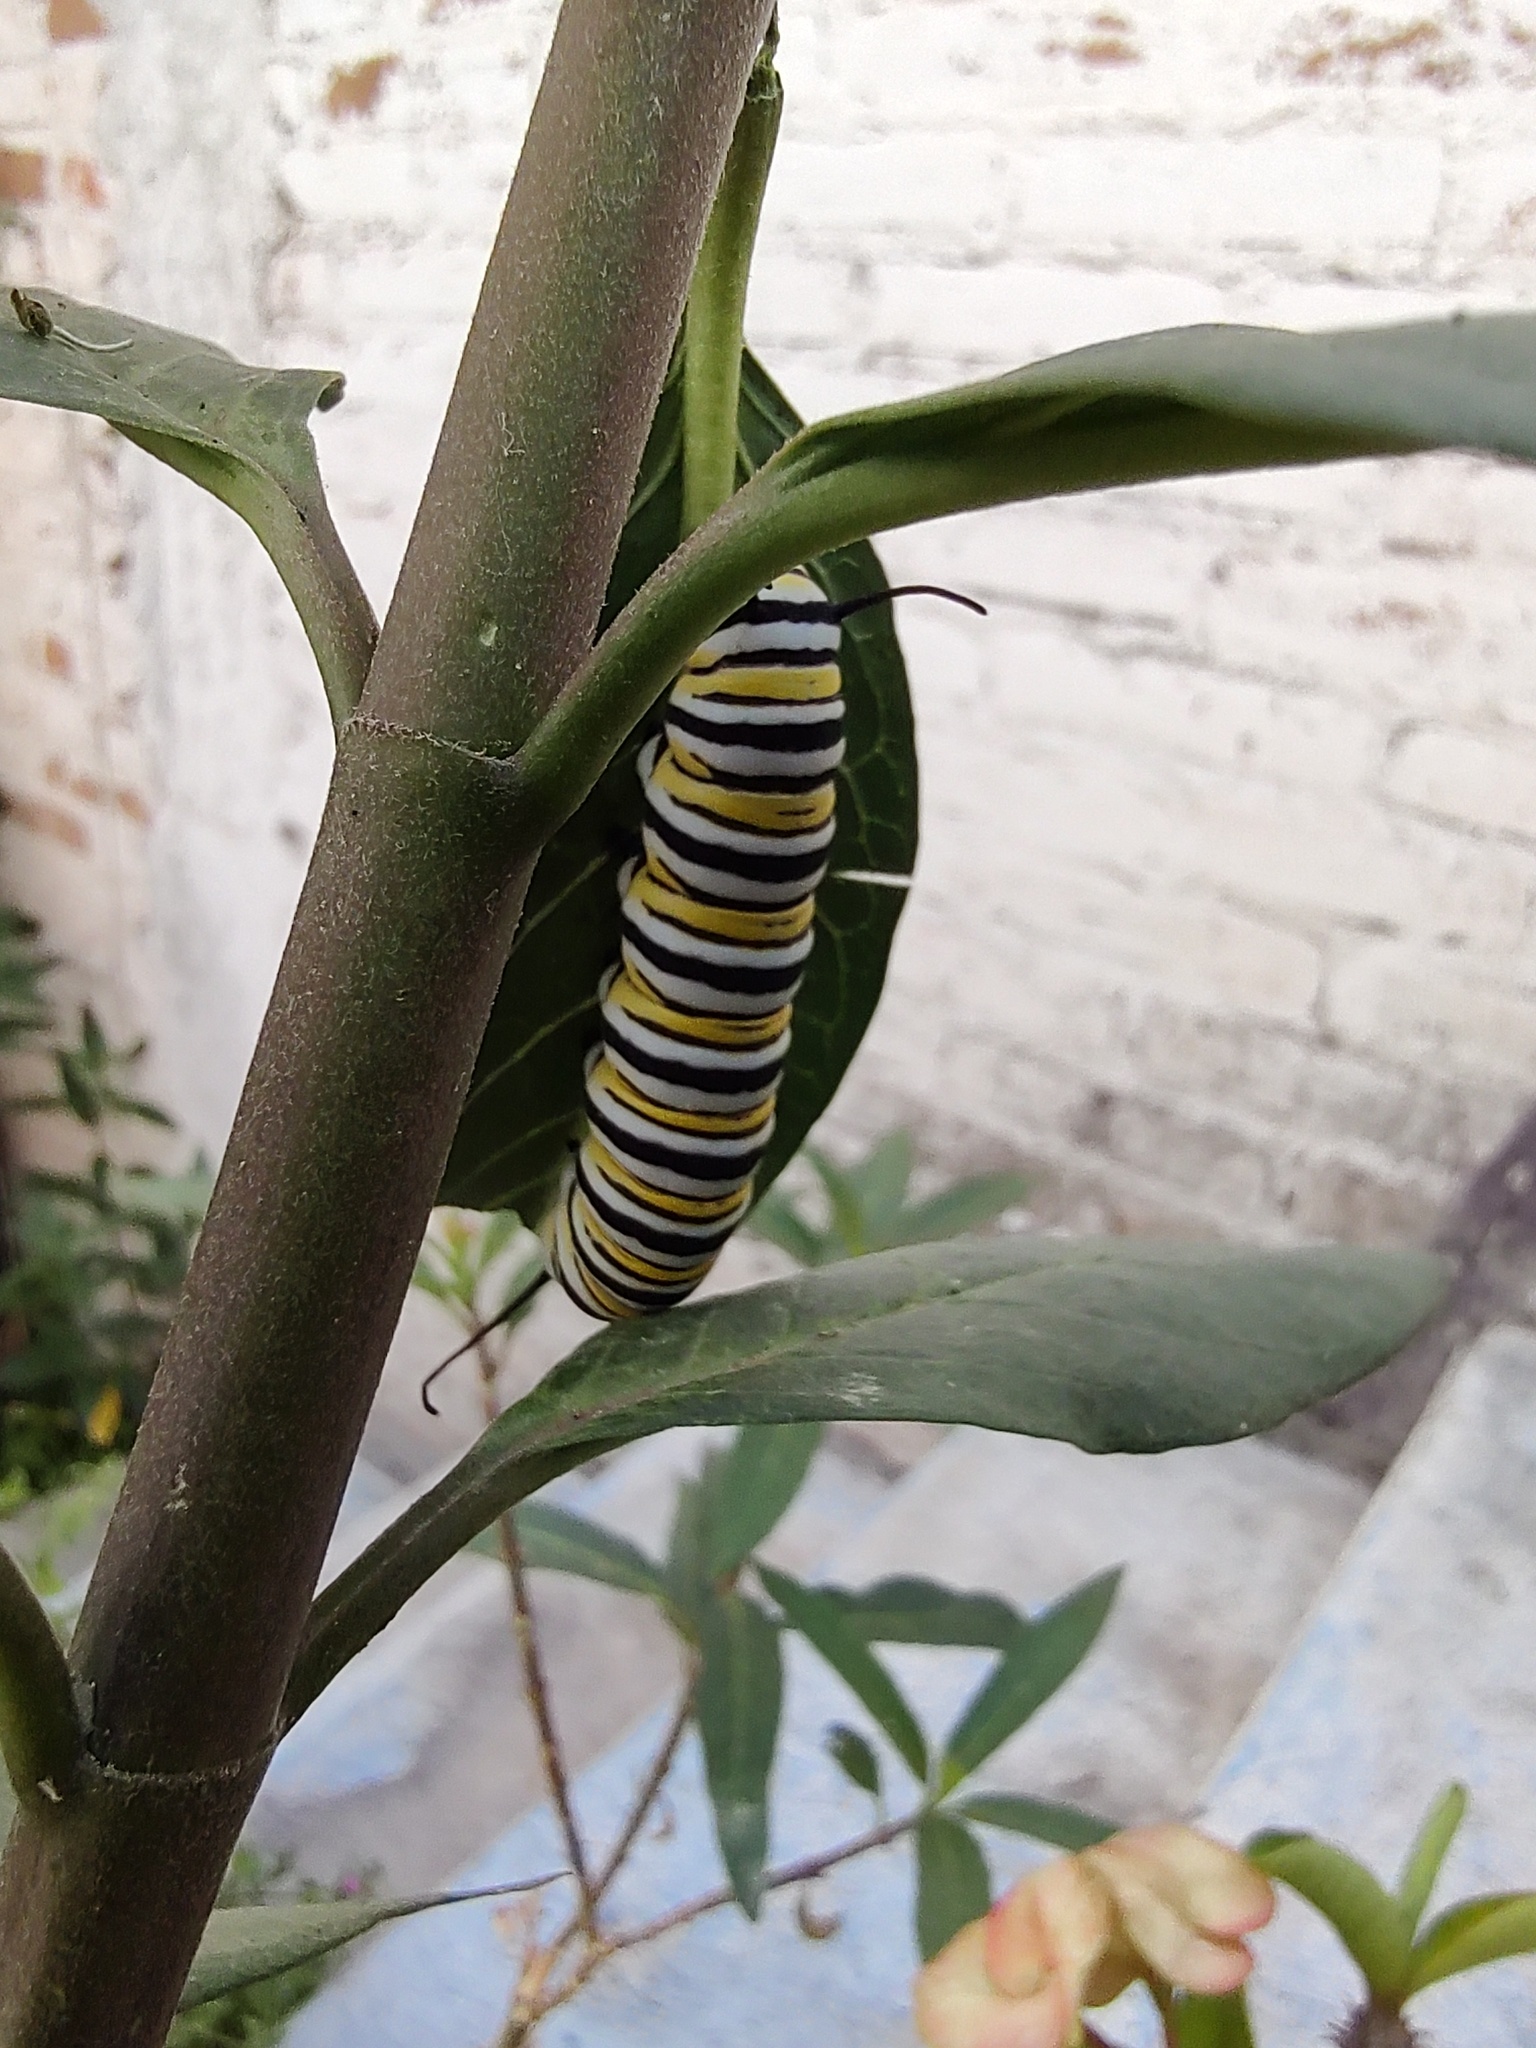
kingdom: Animalia
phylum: Arthropoda
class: Insecta
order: Lepidoptera
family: Nymphalidae
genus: Danaus
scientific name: Danaus plexippus
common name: Monarch
